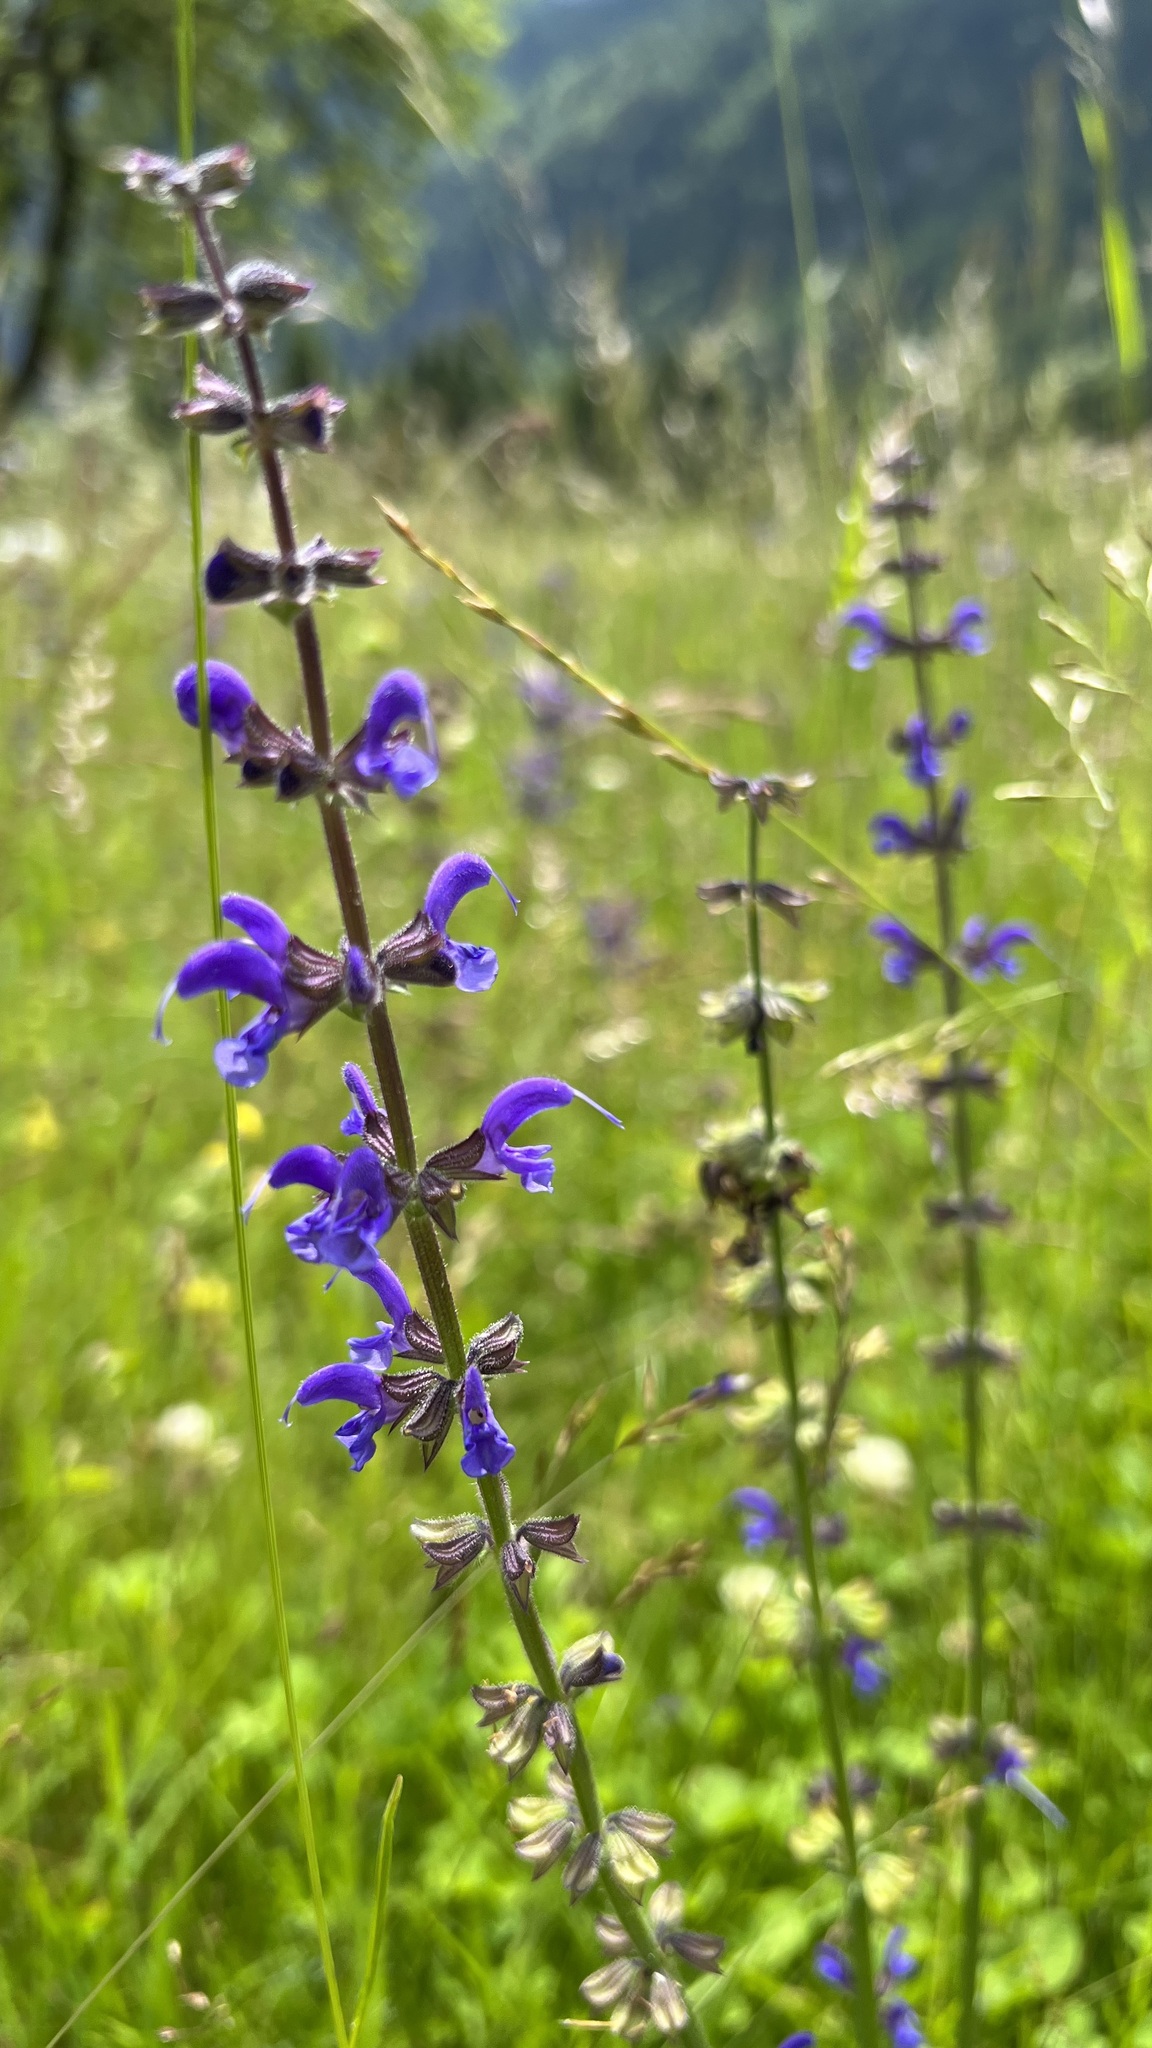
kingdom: Plantae
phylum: Tracheophyta
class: Magnoliopsida
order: Lamiales
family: Lamiaceae
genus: Salvia
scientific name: Salvia pratensis
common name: Meadow sage
